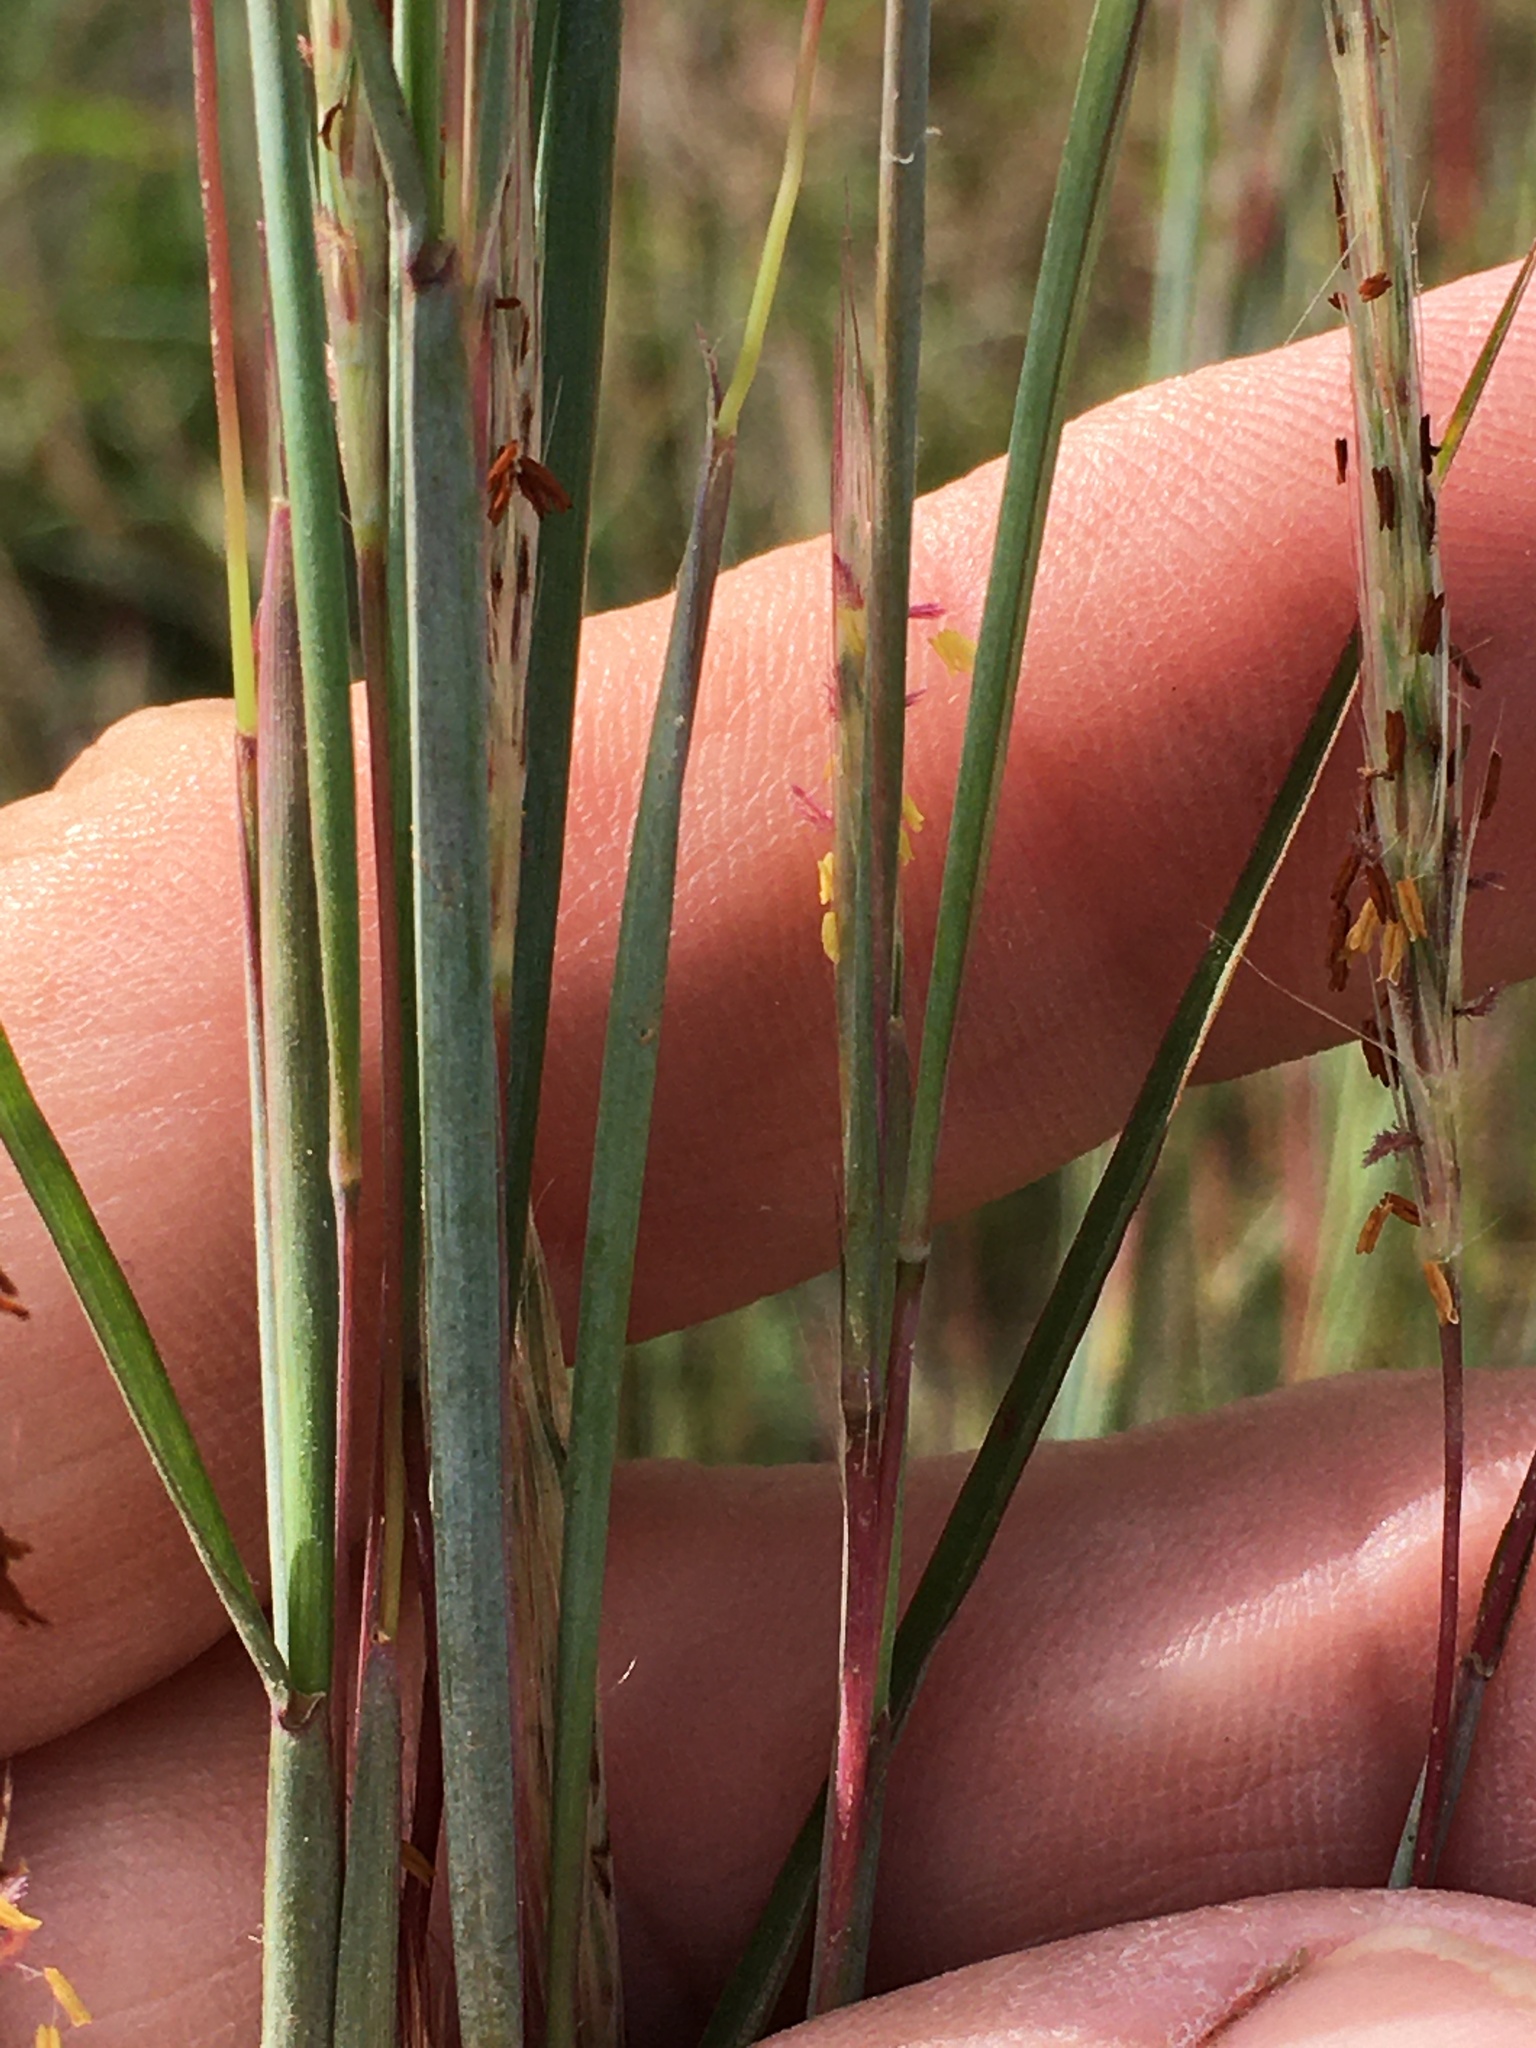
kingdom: Plantae
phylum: Tracheophyta
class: Liliopsida
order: Poales
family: Poaceae
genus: Andropogon
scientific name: Andropogon ternarius
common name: Split bluestem
